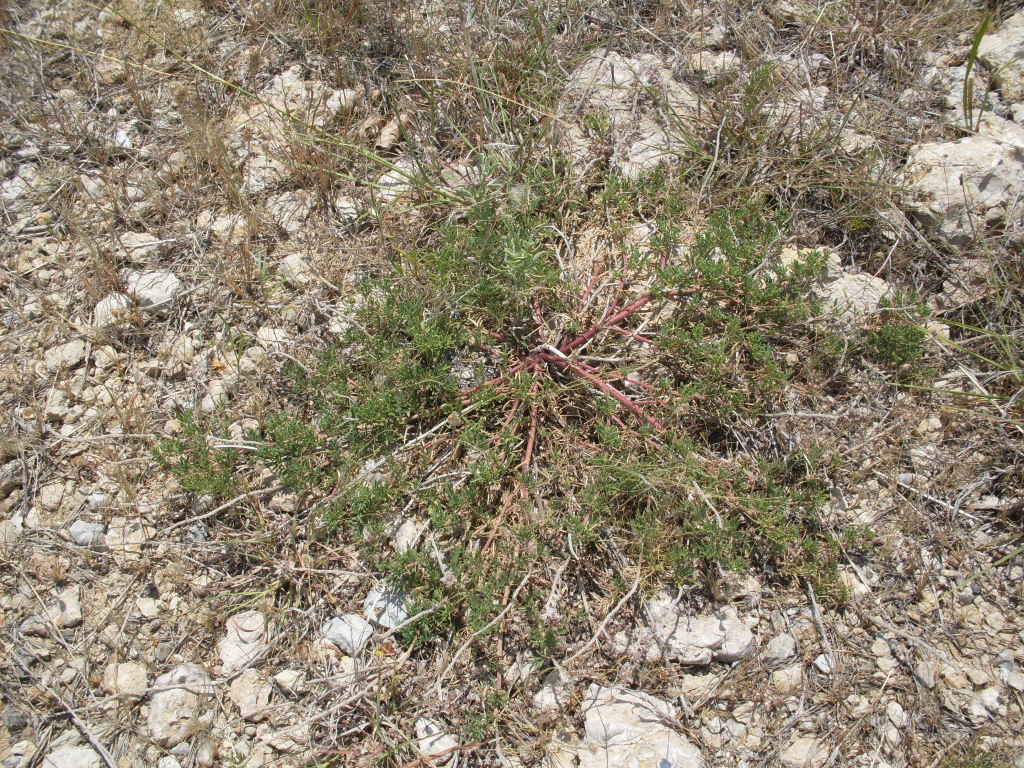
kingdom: Plantae
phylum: Tracheophyta
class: Magnoliopsida
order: Fabales
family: Fabaceae
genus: Dalea
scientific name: Dalea reverchonii
